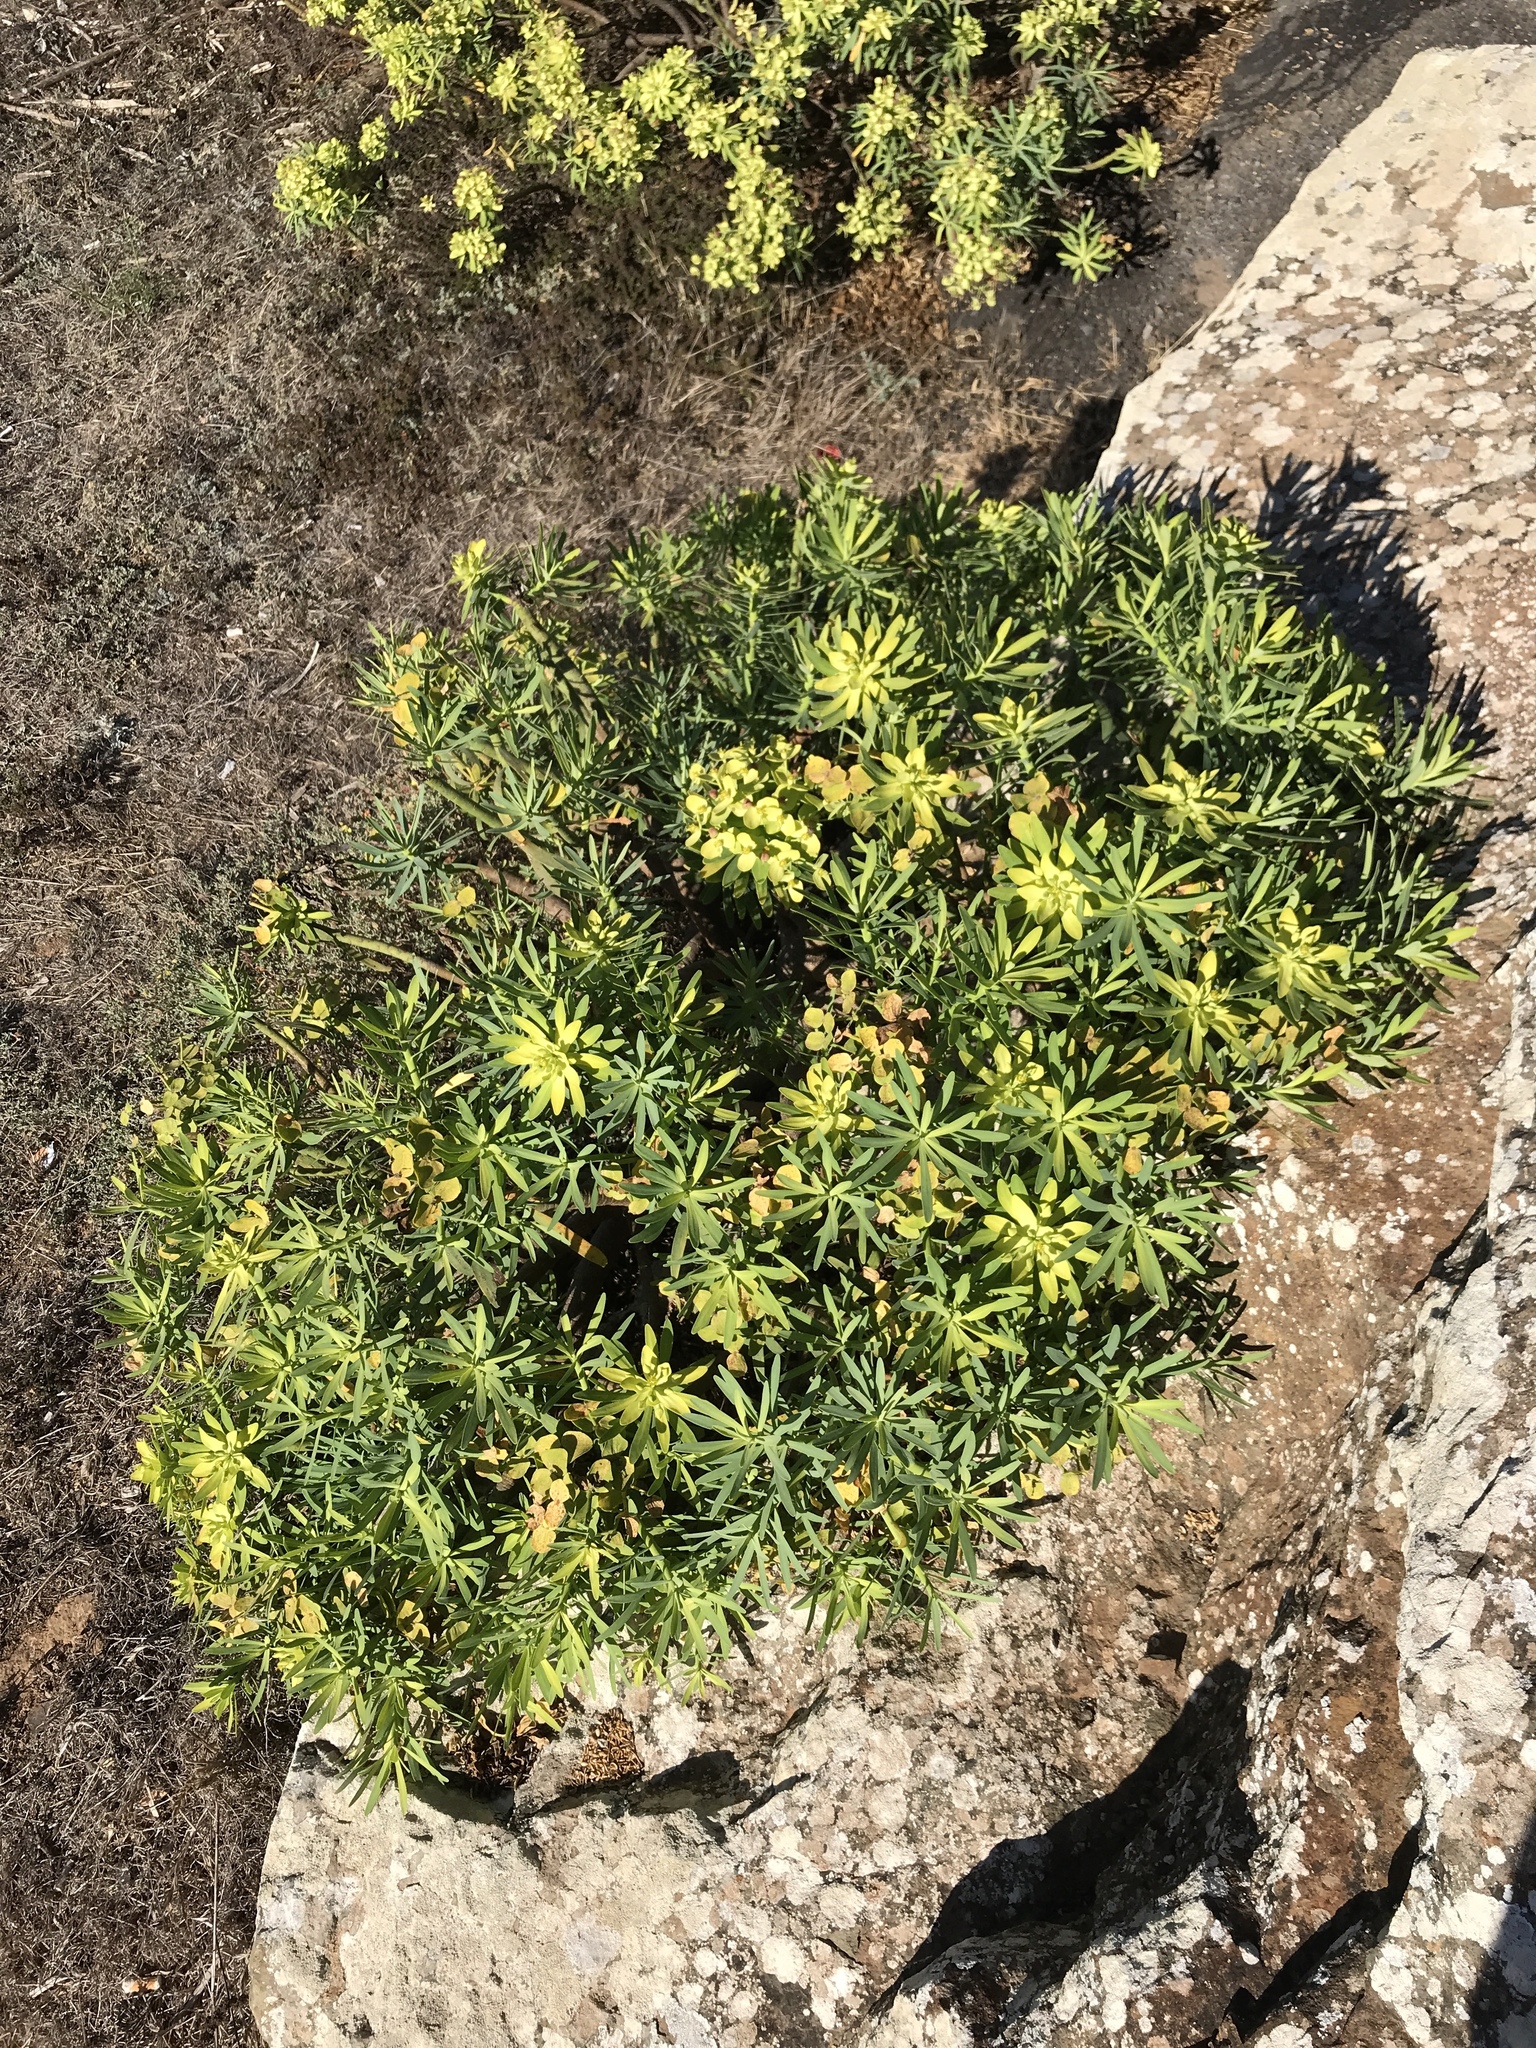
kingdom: Plantae
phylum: Tracheophyta
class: Magnoliopsida
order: Malpighiales
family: Euphorbiaceae
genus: Euphorbia
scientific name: Euphorbia regis-jubae
